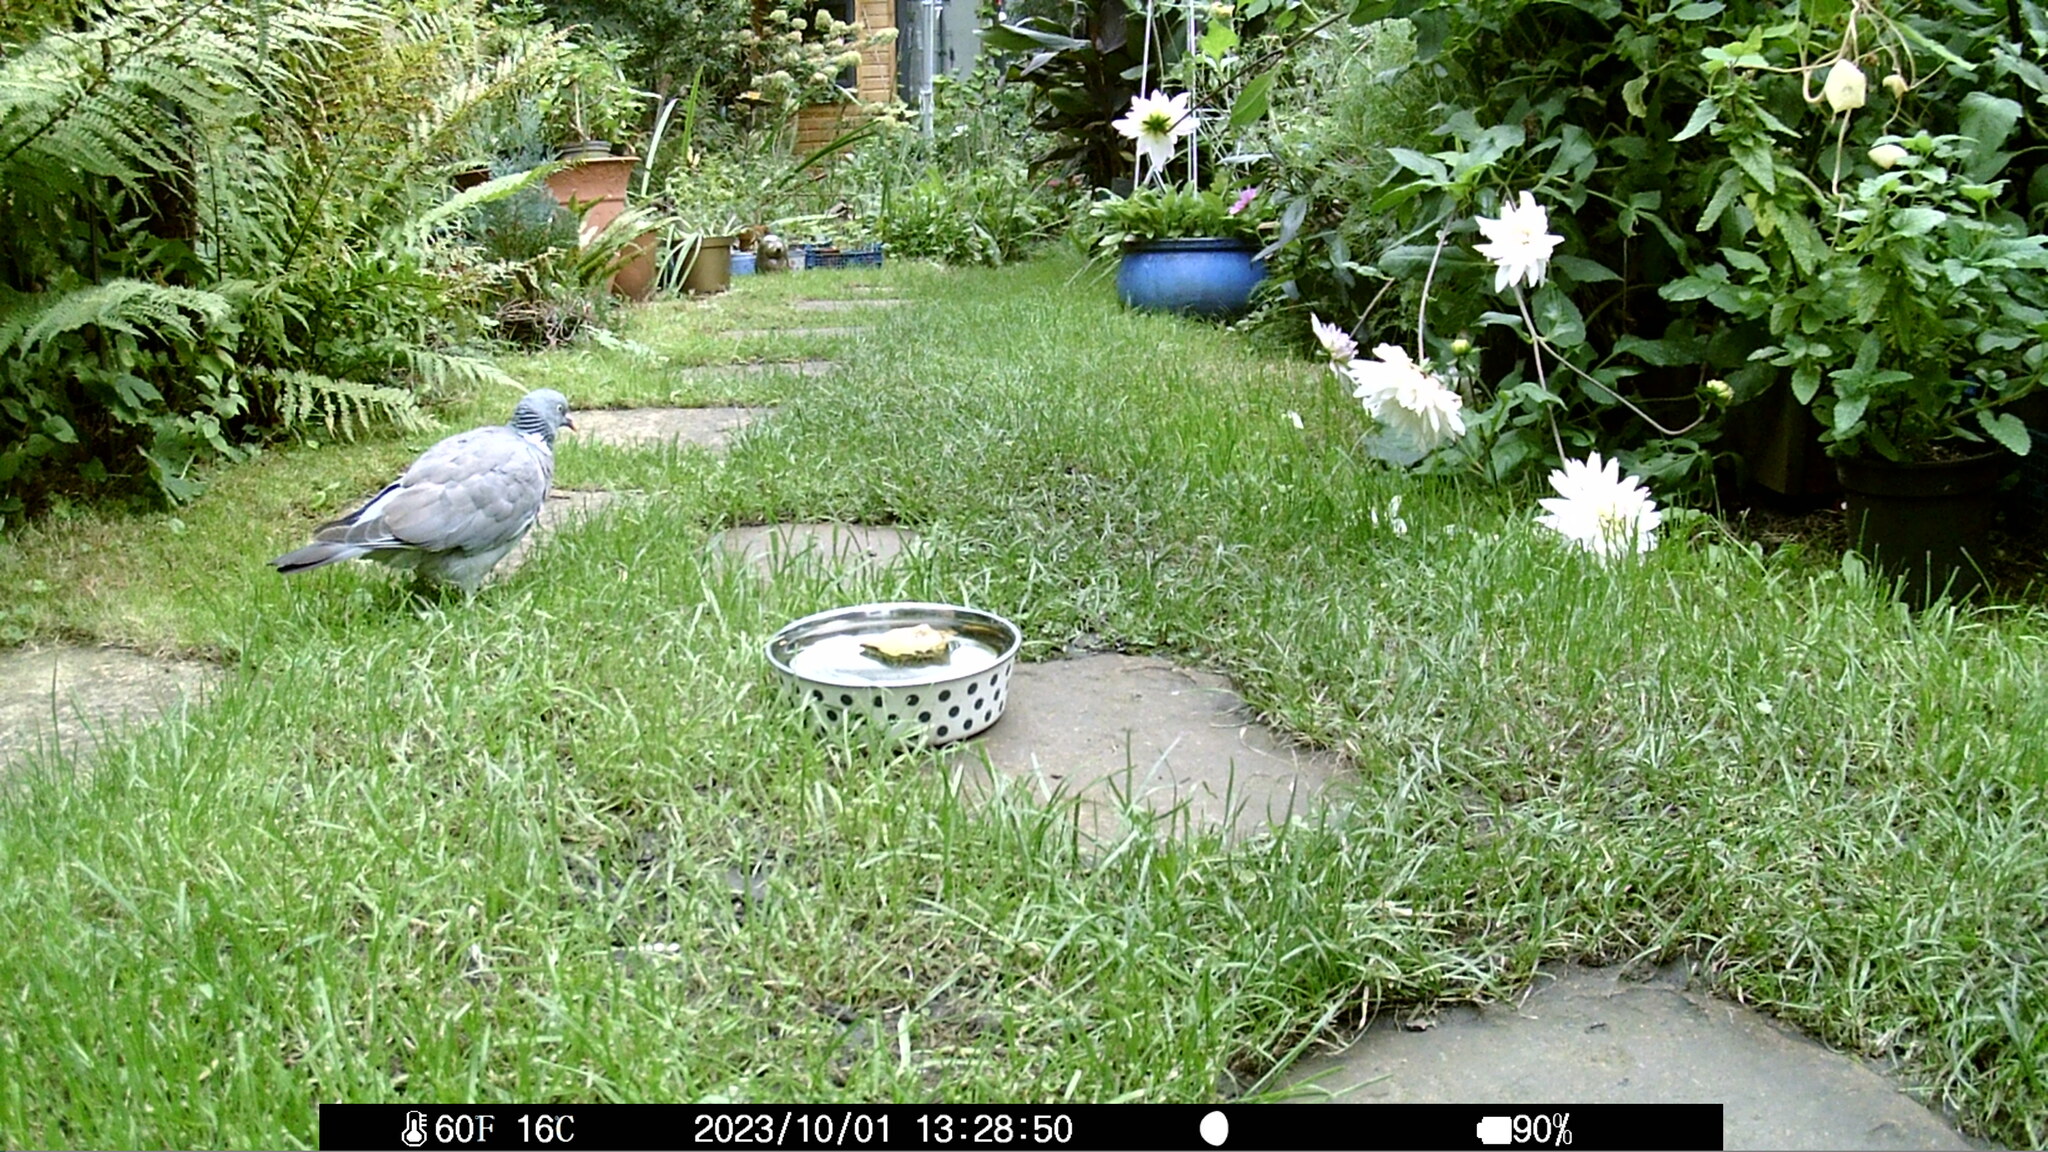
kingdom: Animalia
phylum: Chordata
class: Aves
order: Columbiformes
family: Columbidae
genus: Columba
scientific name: Columba palumbus
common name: Common wood pigeon
